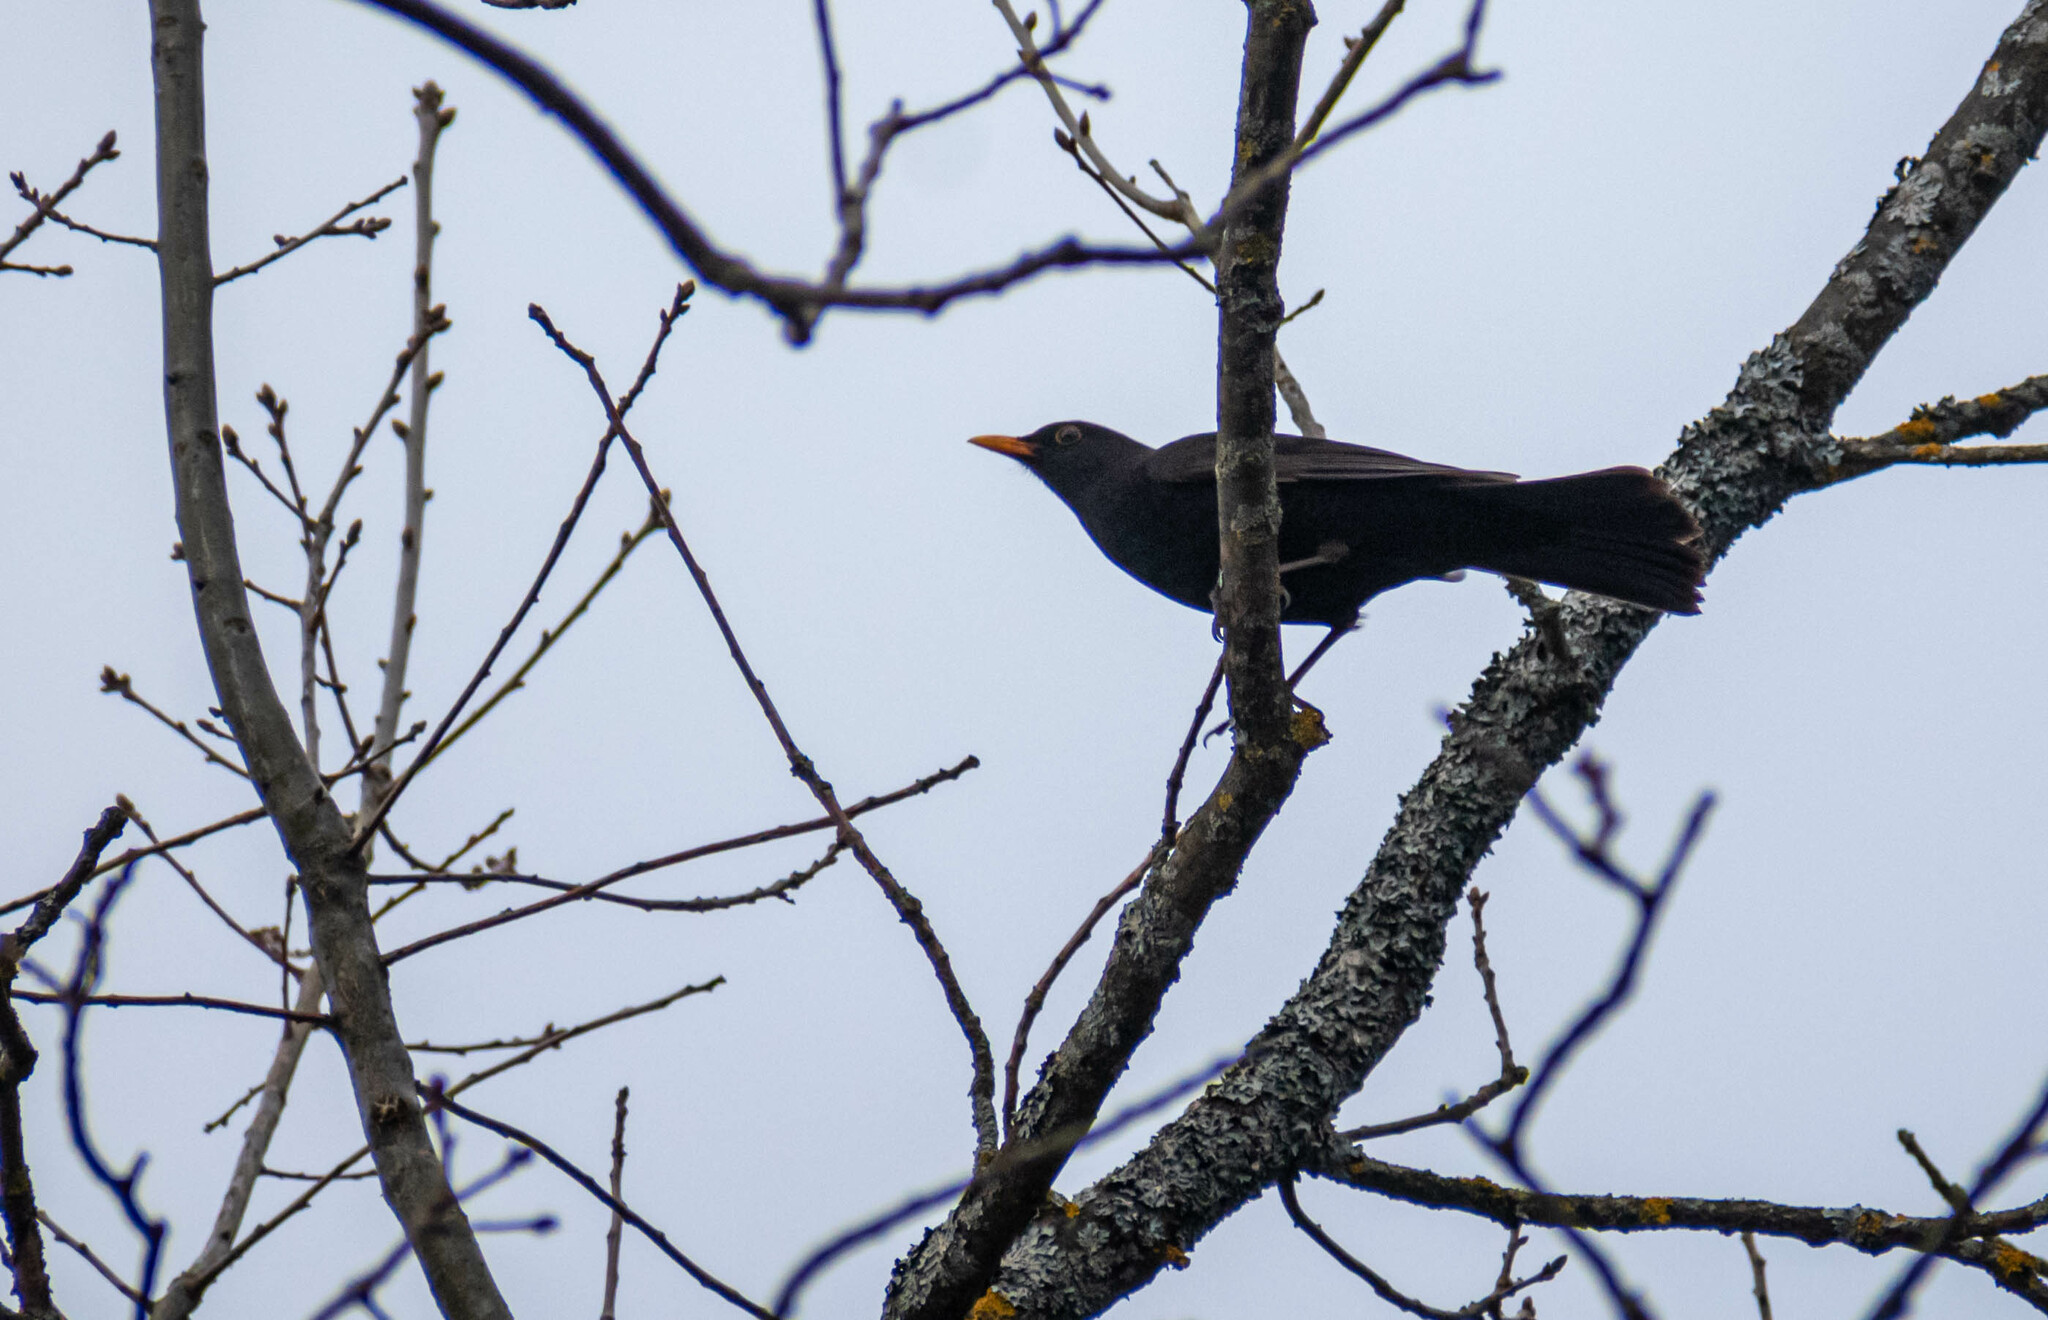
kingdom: Animalia
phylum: Chordata
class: Aves
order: Passeriformes
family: Turdidae
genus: Turdus
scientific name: Turdus merula
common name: Common blackbird
